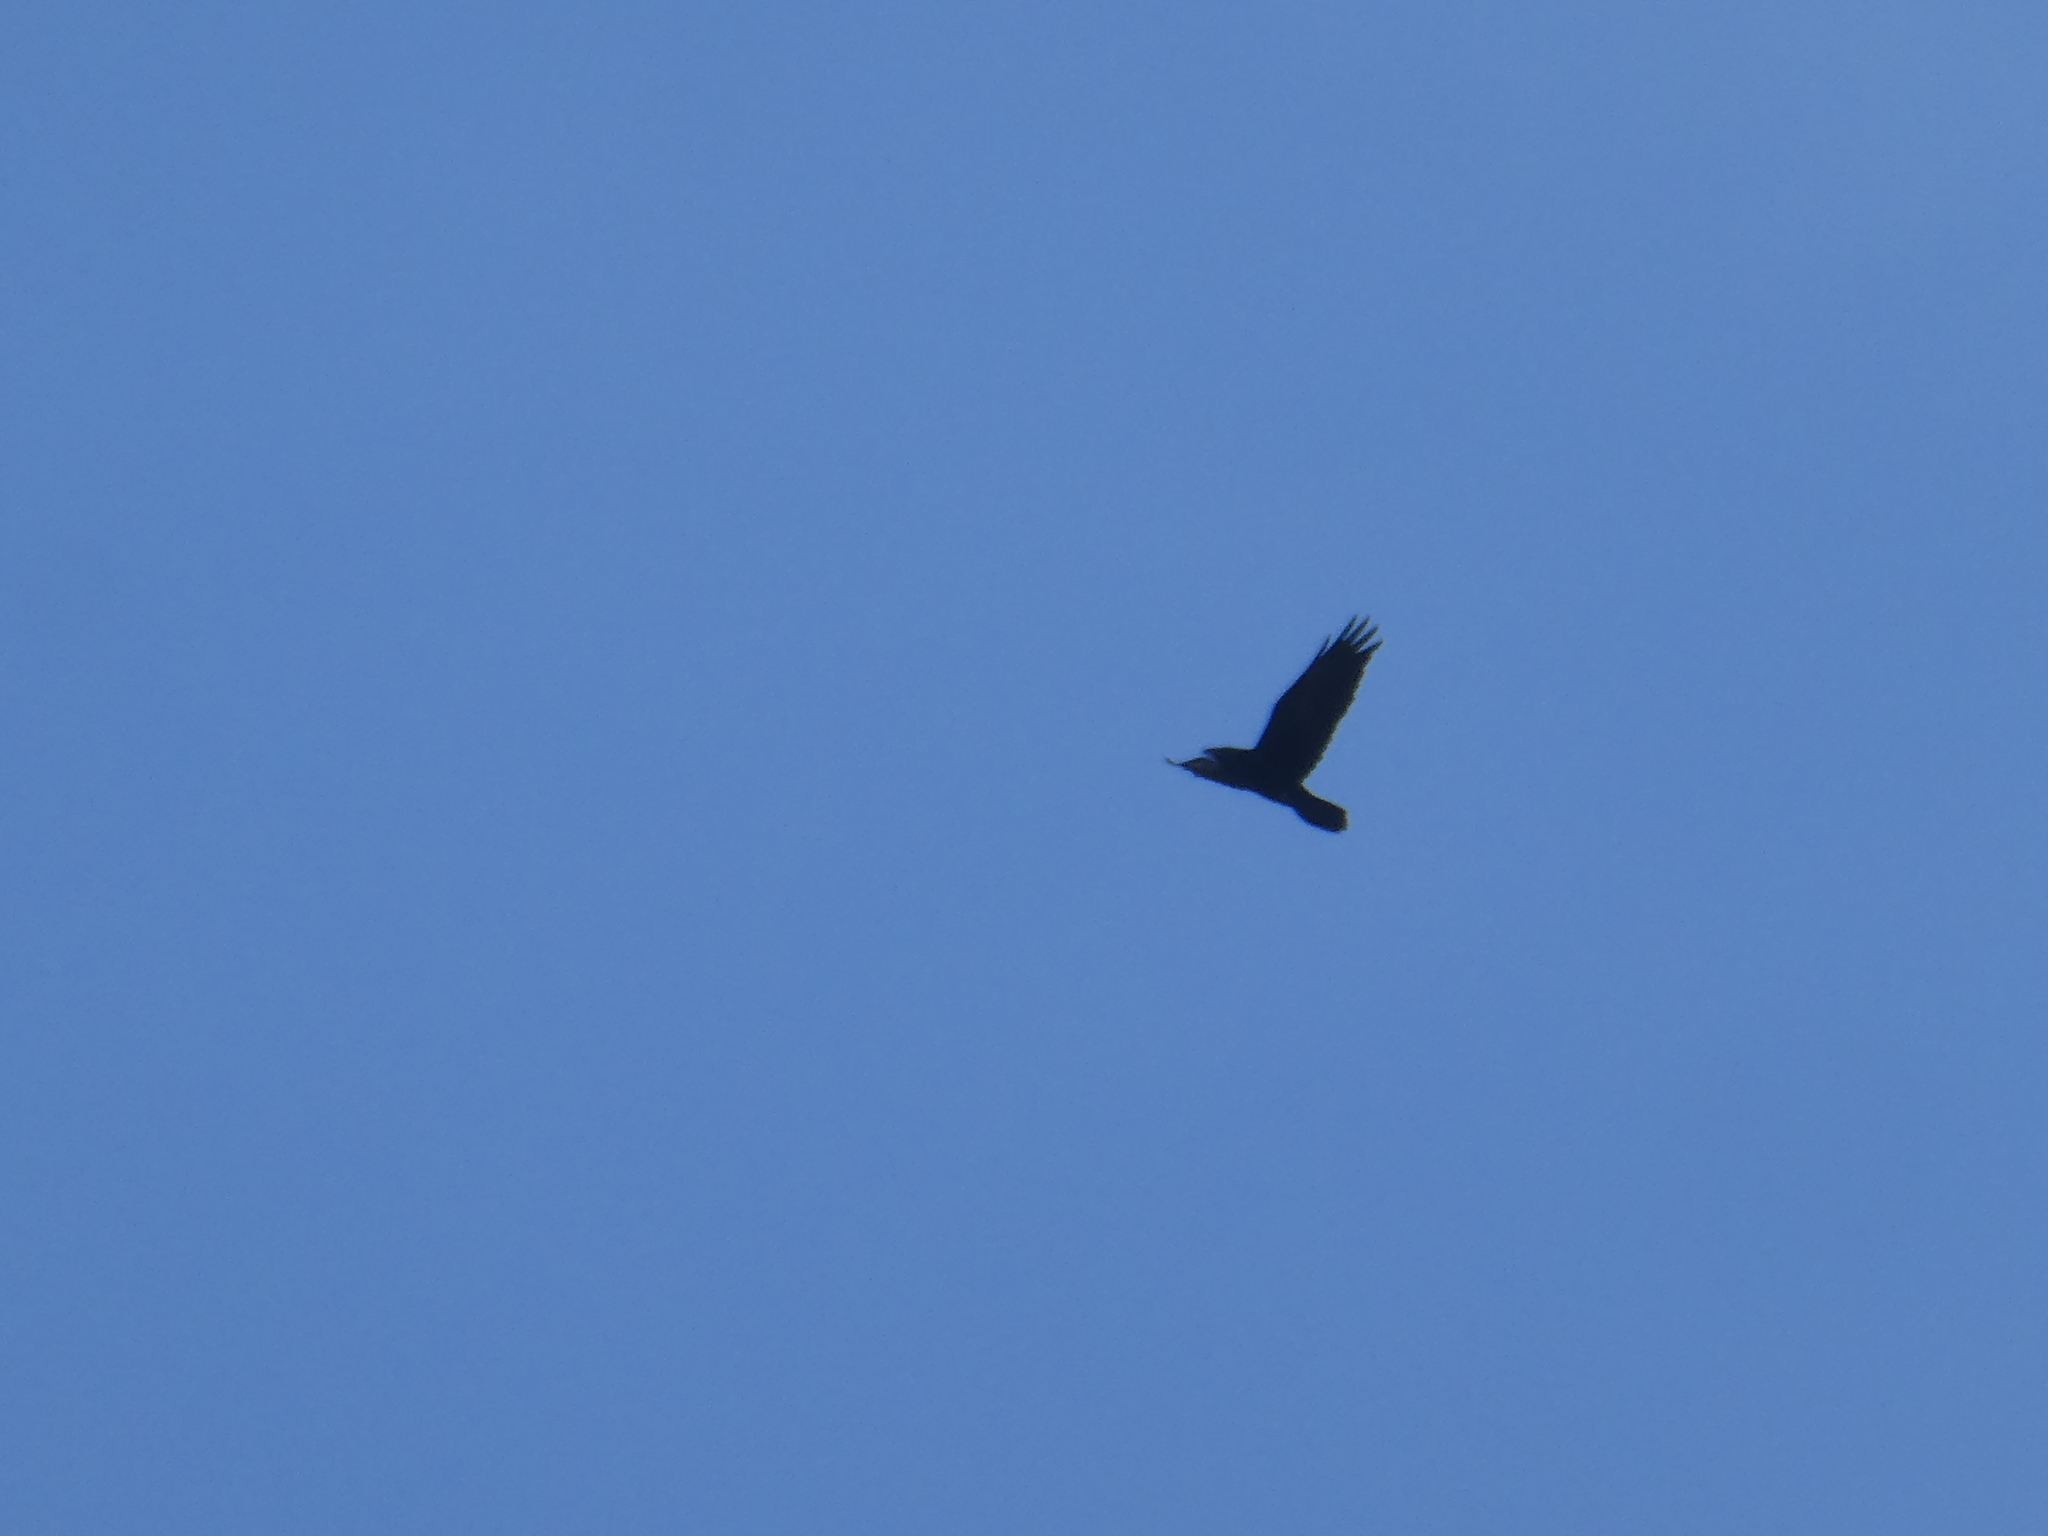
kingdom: Animalia
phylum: Chordata
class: Aves
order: Passeriformes
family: Corvidae
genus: Corvus
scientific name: Corvus corax
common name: Common raven
